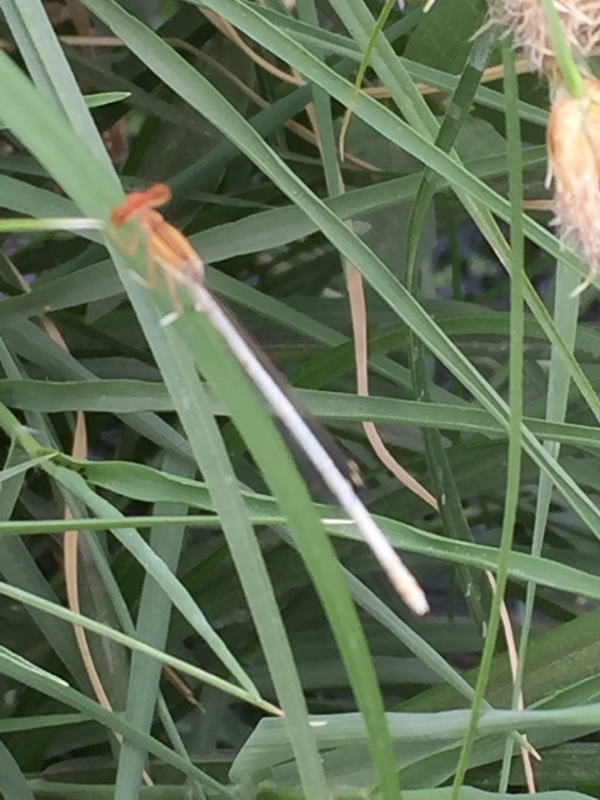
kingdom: Animalia
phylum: Arthropoda
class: Insecta
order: Odonata
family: Platycnemididae
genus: Platycnemis
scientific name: Platycnemis dealbata
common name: Ivory featherleg
